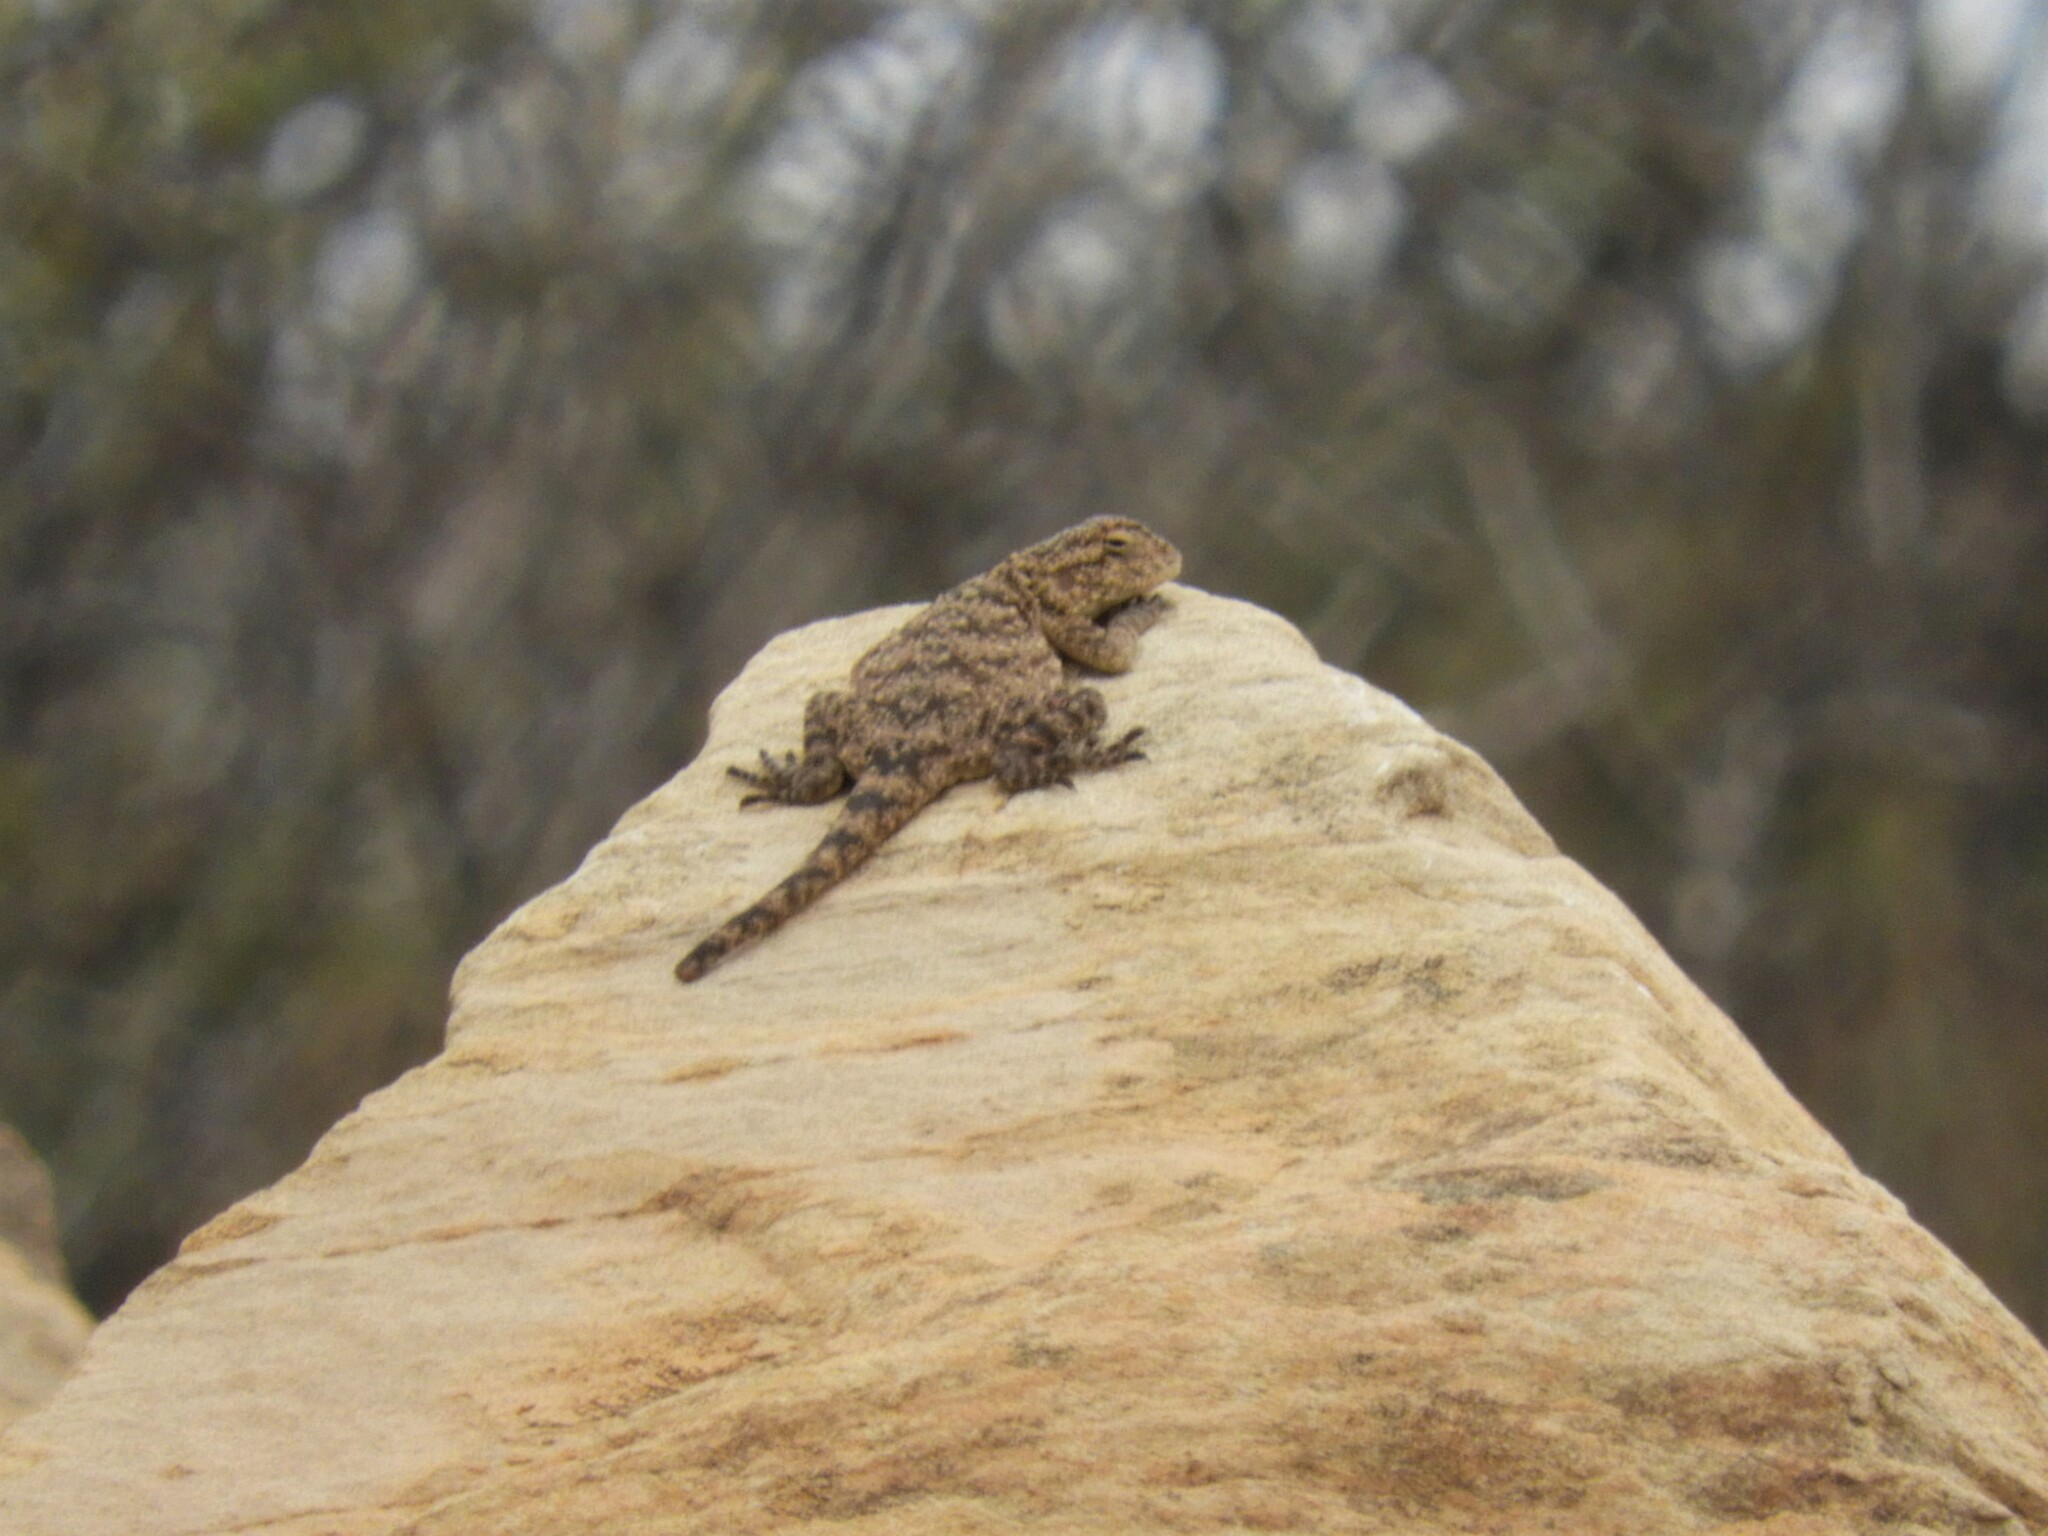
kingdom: Animalia
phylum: Chordata
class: Squamata
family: Agamidae
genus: Agama
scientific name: Agama atra
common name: Southern african rock agama
